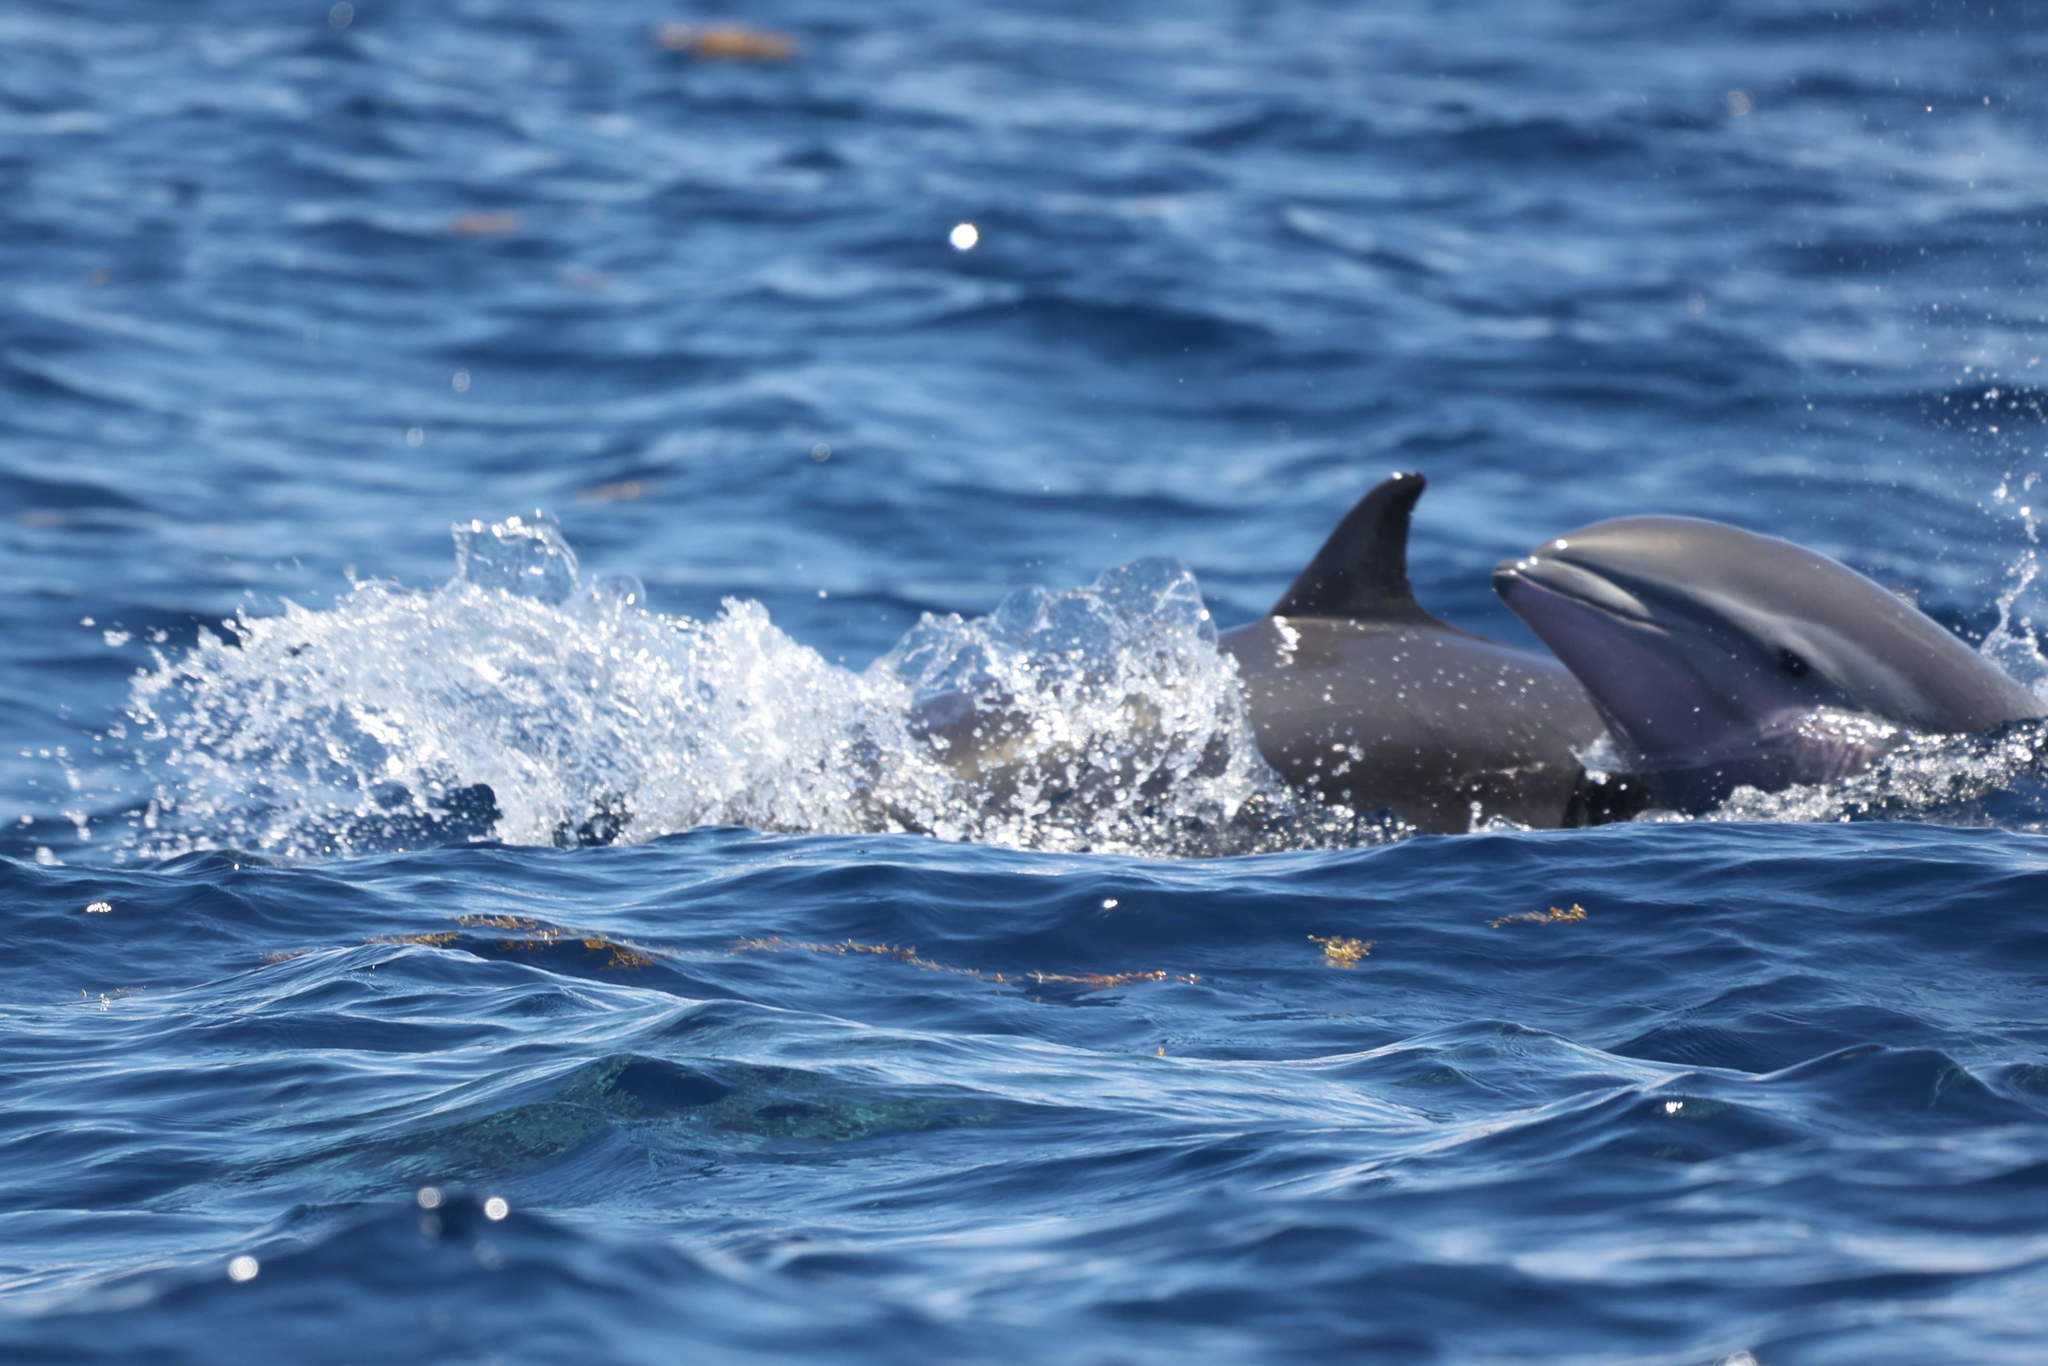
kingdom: Animalia
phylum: Chordata
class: Mammalia
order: Cetacea
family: Delphinidae
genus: Lagenodelphis
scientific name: Lagenodelphis hosei
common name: Fraser's dolphin
